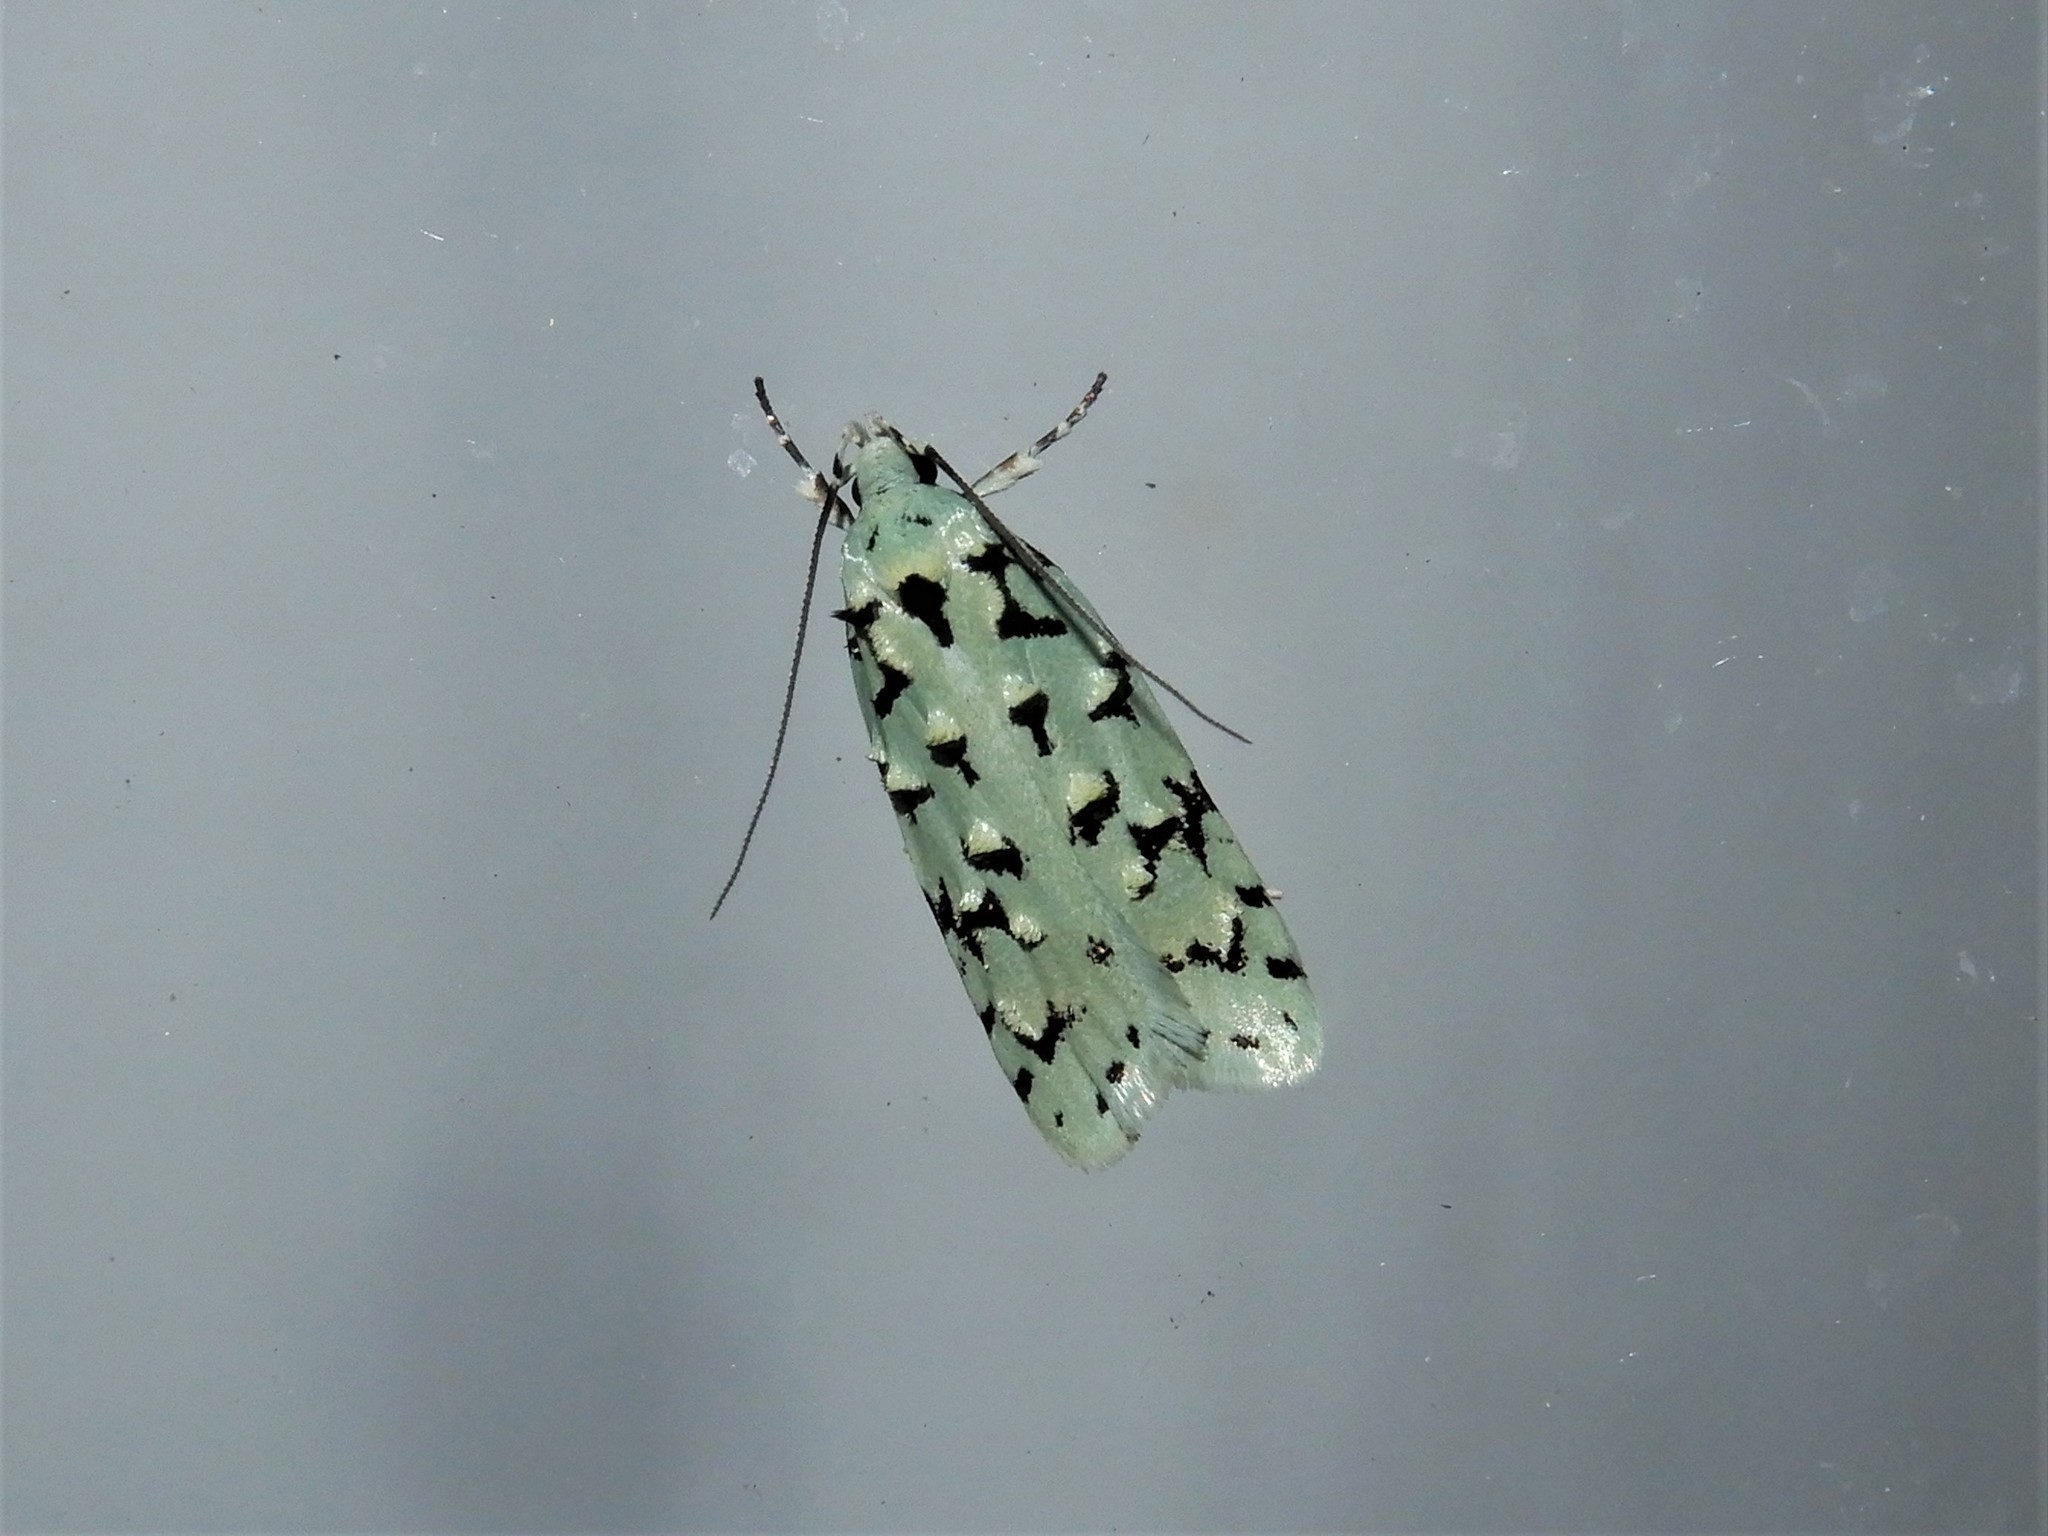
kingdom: Animalia
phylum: Arthropoda
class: Insecta
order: Lepidoptera
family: Oecophoridae
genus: Izatha
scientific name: Izatha peroneanella
